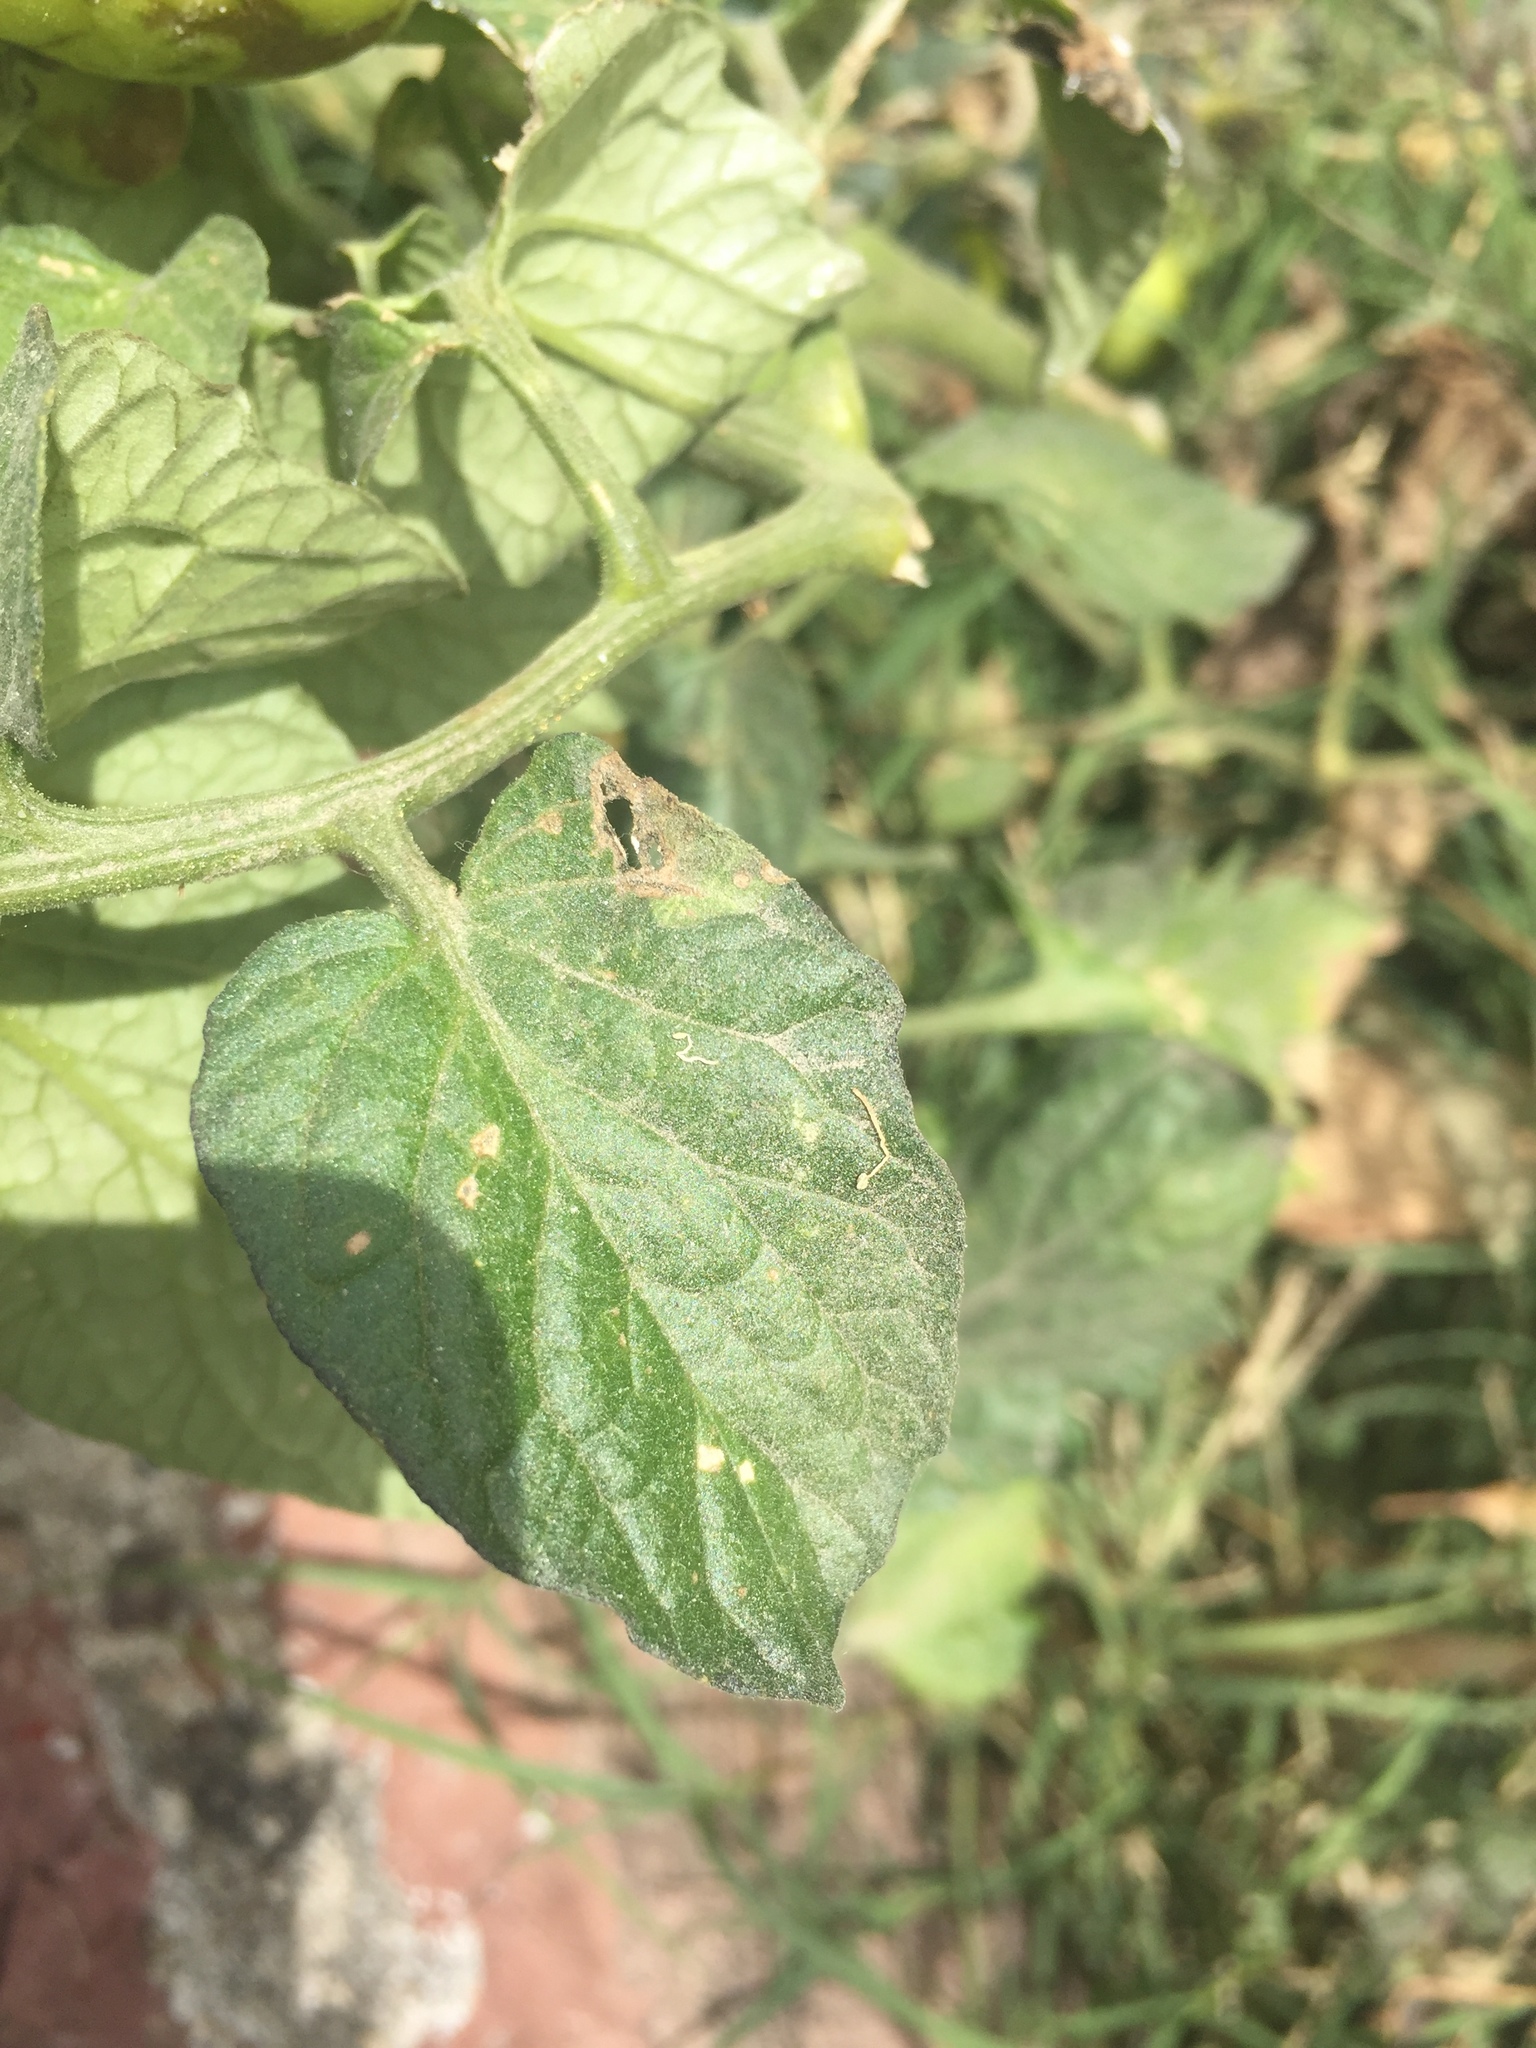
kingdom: Plantae
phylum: Tracheophyta
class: Magnoliopsida
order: Solanales
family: Solanaceae
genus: Solanum
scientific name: Solanum lycopersicum
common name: Garden tomato
